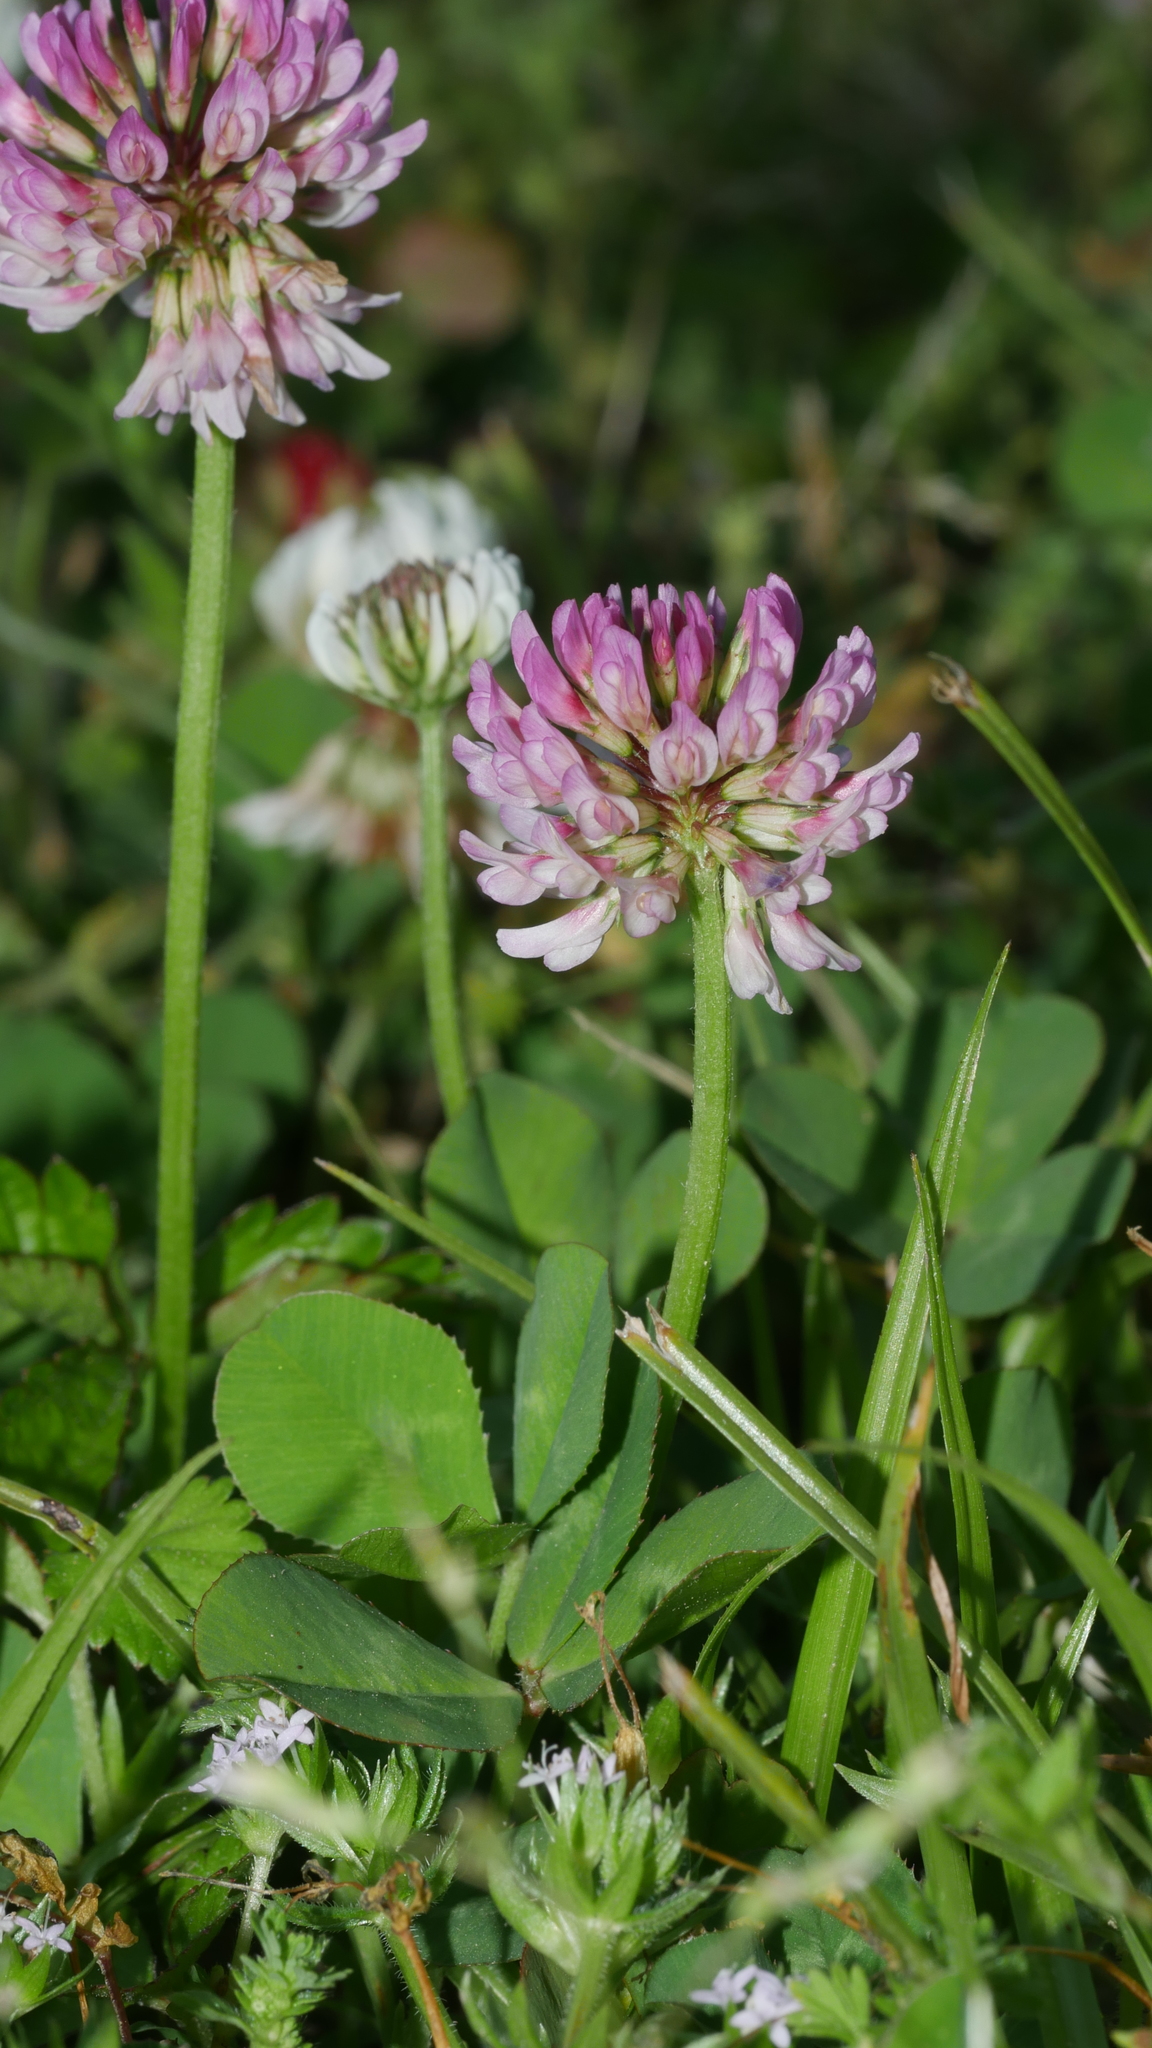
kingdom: Plantae
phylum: Tracheophyta
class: Magnoliopsida
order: Fabales
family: Fabaceae
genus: Trifolium
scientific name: Trifolium repens
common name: White clover
